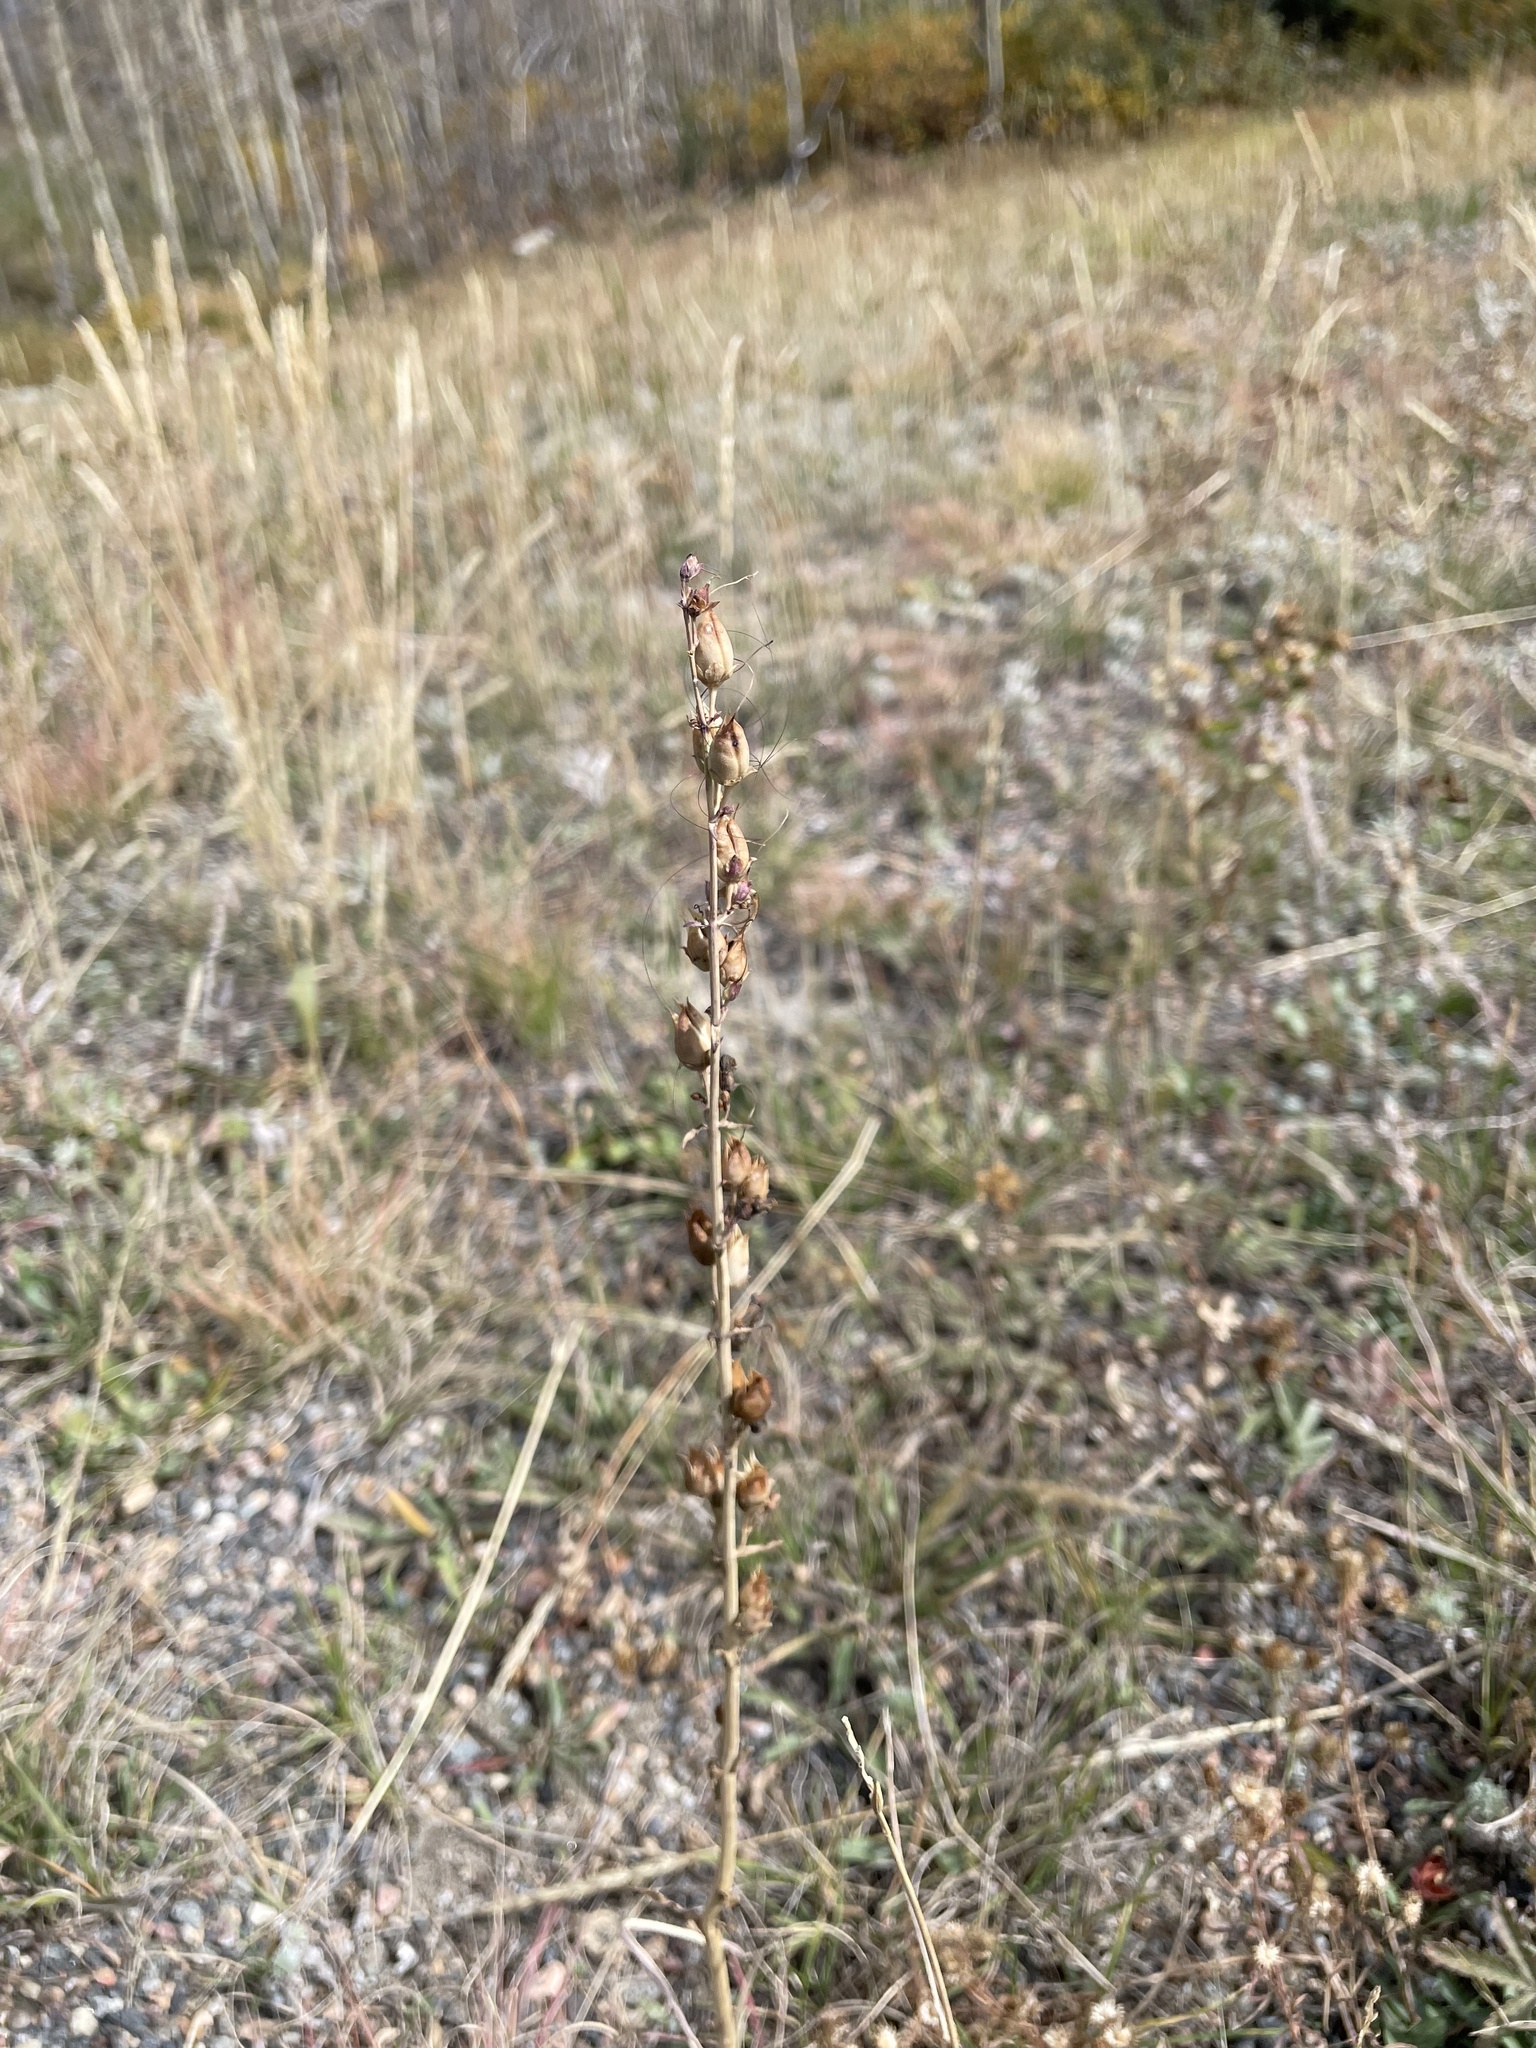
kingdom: Plantae
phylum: Tracheophyta
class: Magnoliopsida
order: Lamiales
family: Plantaginaceae
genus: Penstemon
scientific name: Penstemon virgatus
